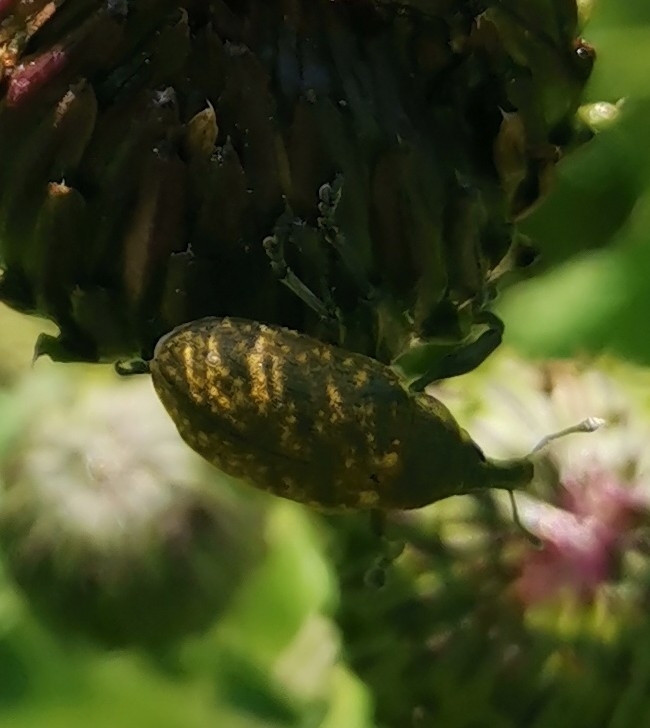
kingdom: Animalia
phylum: Arthropoda
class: Insecta
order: Coleoptera
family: Curculionidae
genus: Larinus
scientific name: Larinus sturnus
